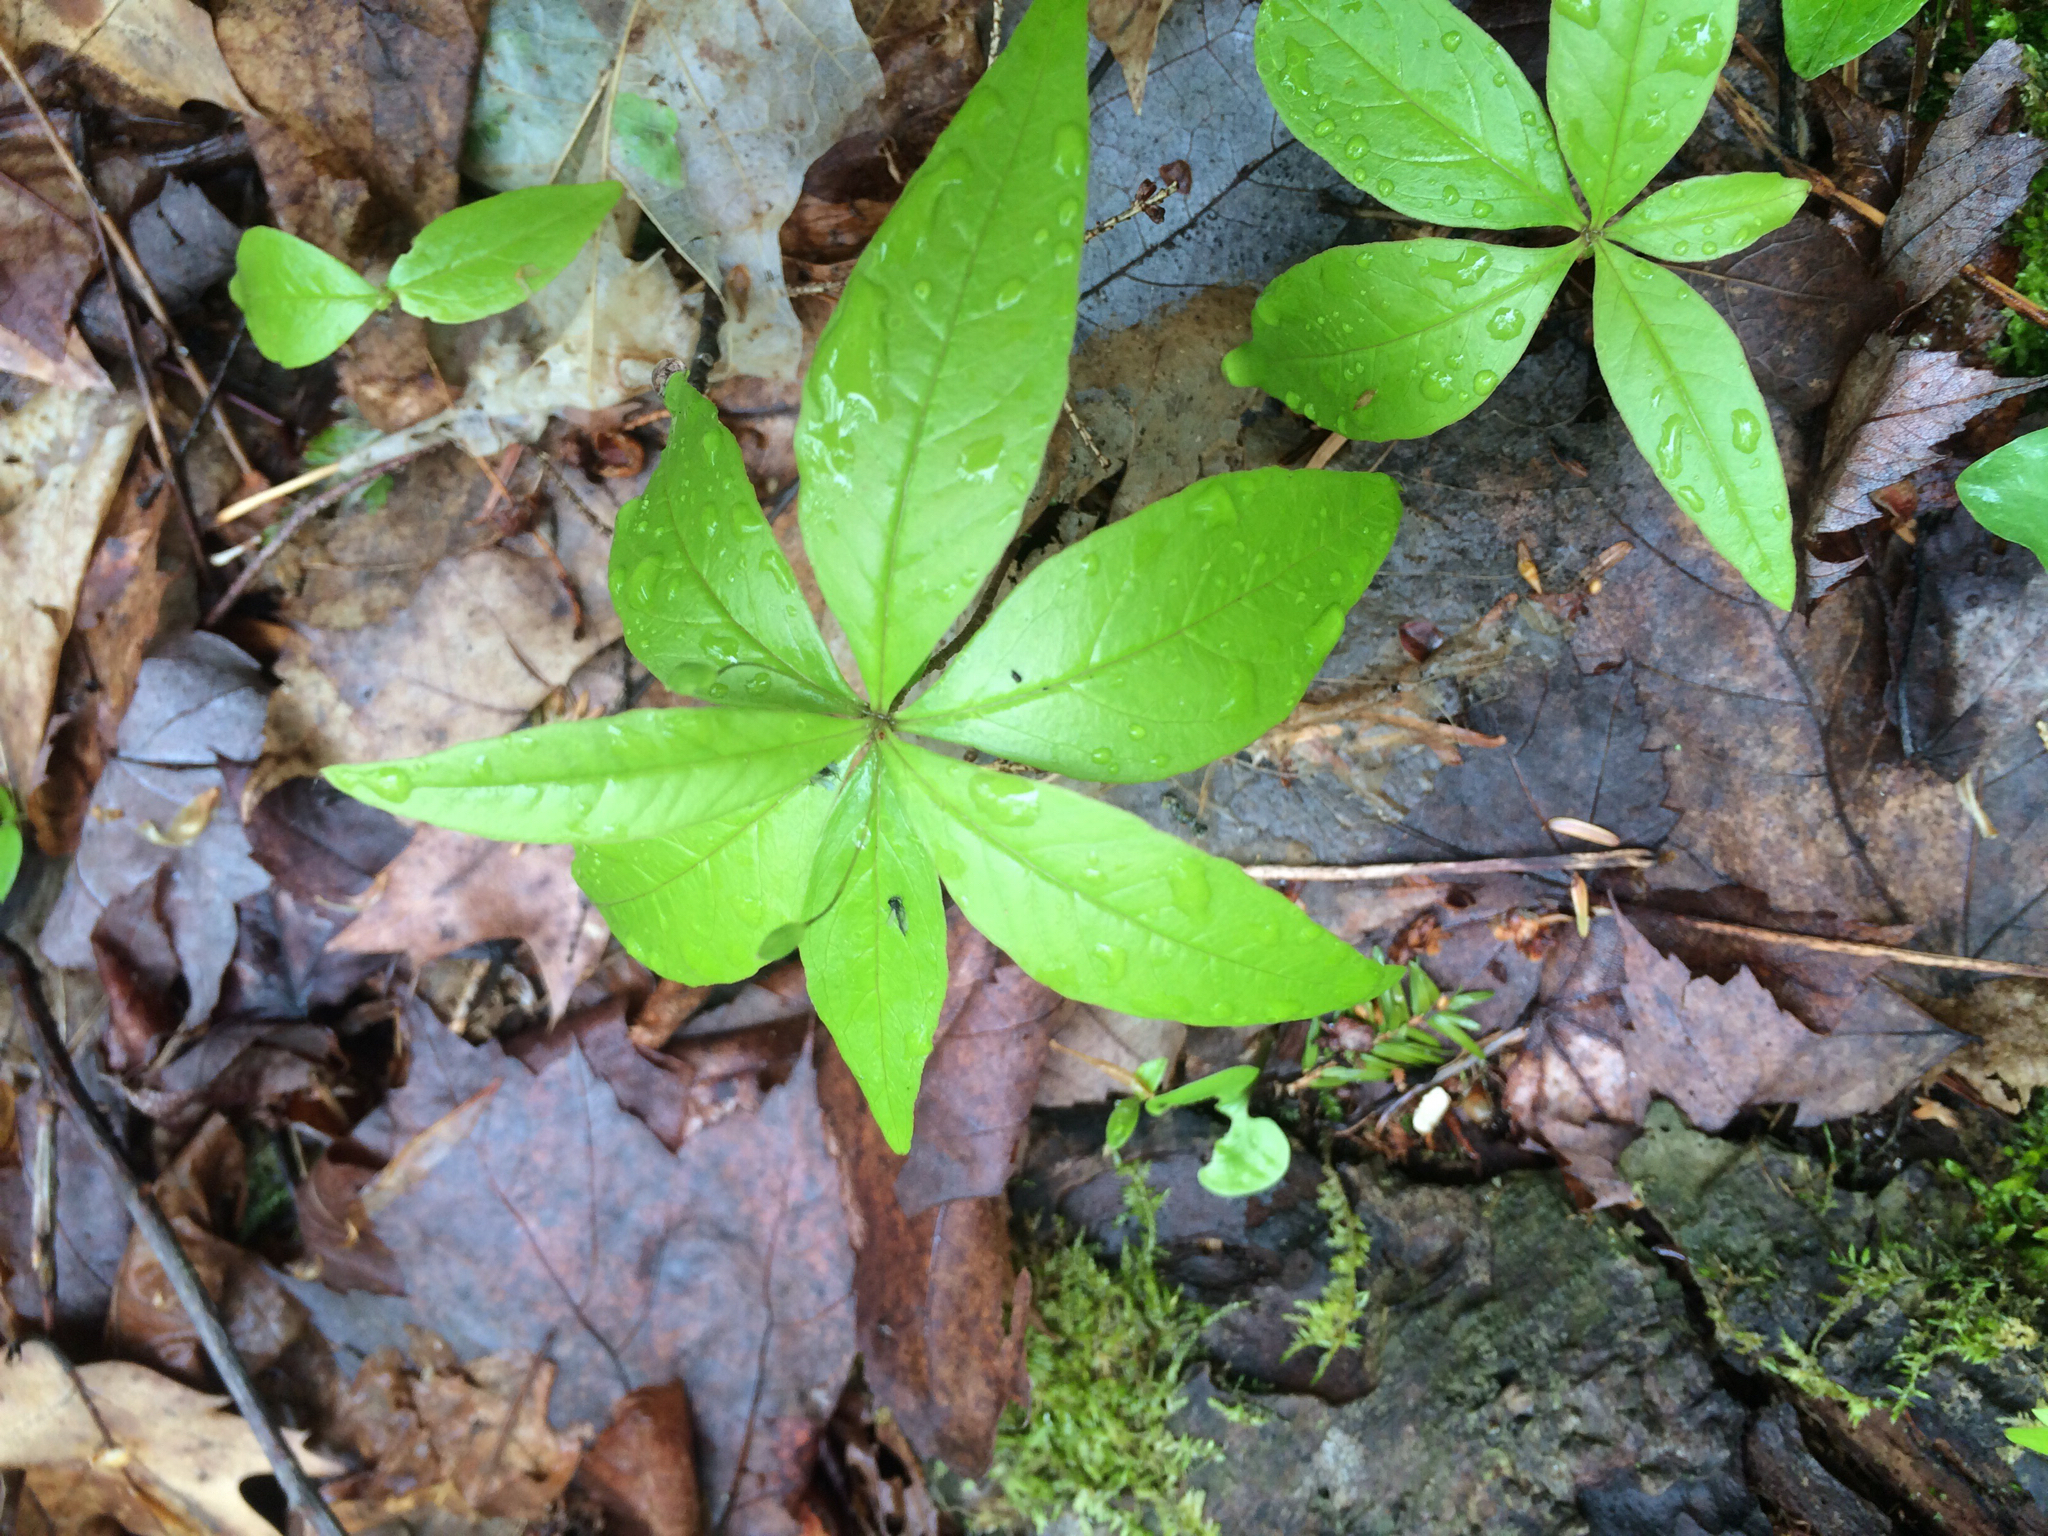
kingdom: Plantae
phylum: Tracheophyta
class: Magnoliopsida
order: Ericales
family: Primulaceae
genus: Lysimachia
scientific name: Lysimachia borealis
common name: American starflower
